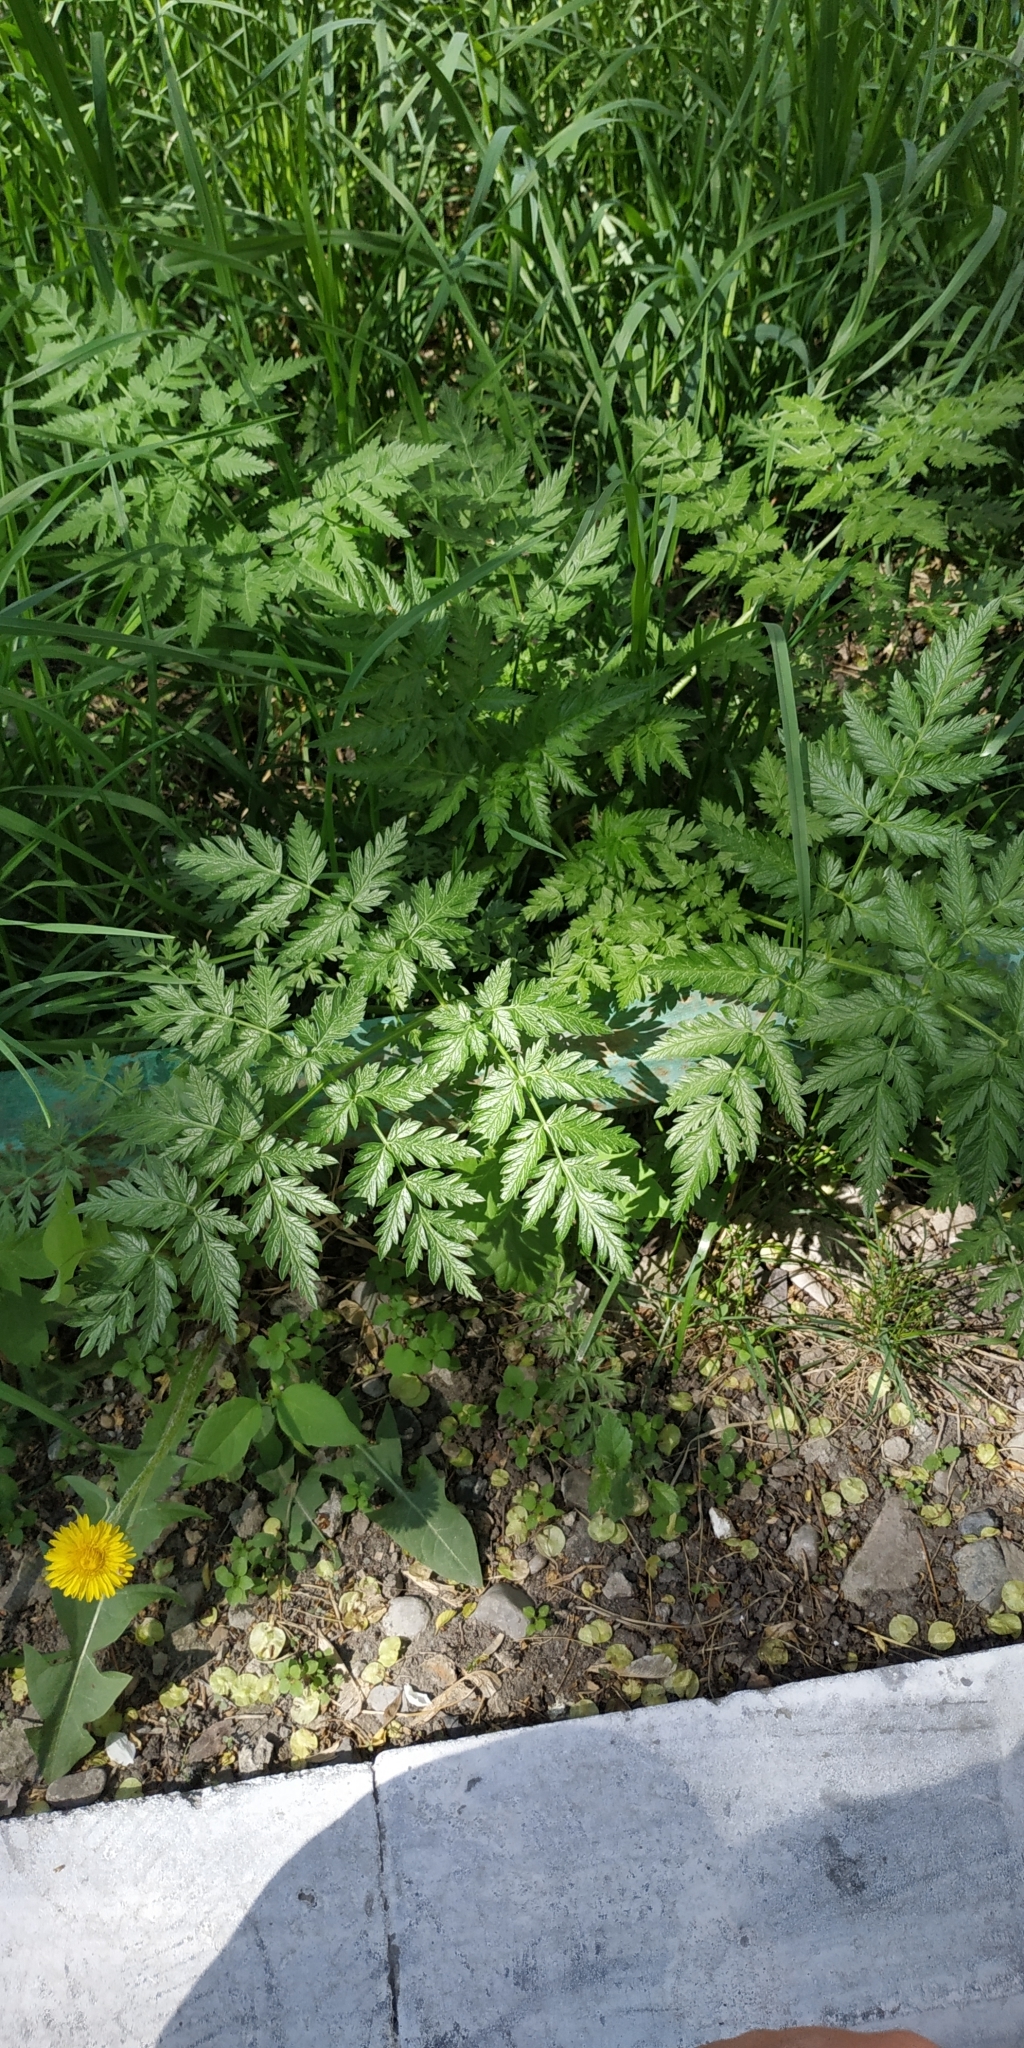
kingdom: Plantae
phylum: Tracheophyta
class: Magnoliopsida
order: Apiales
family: Apiaceae
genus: Anthriscus
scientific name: Anthriscus sylvestris
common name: Cow parsley
